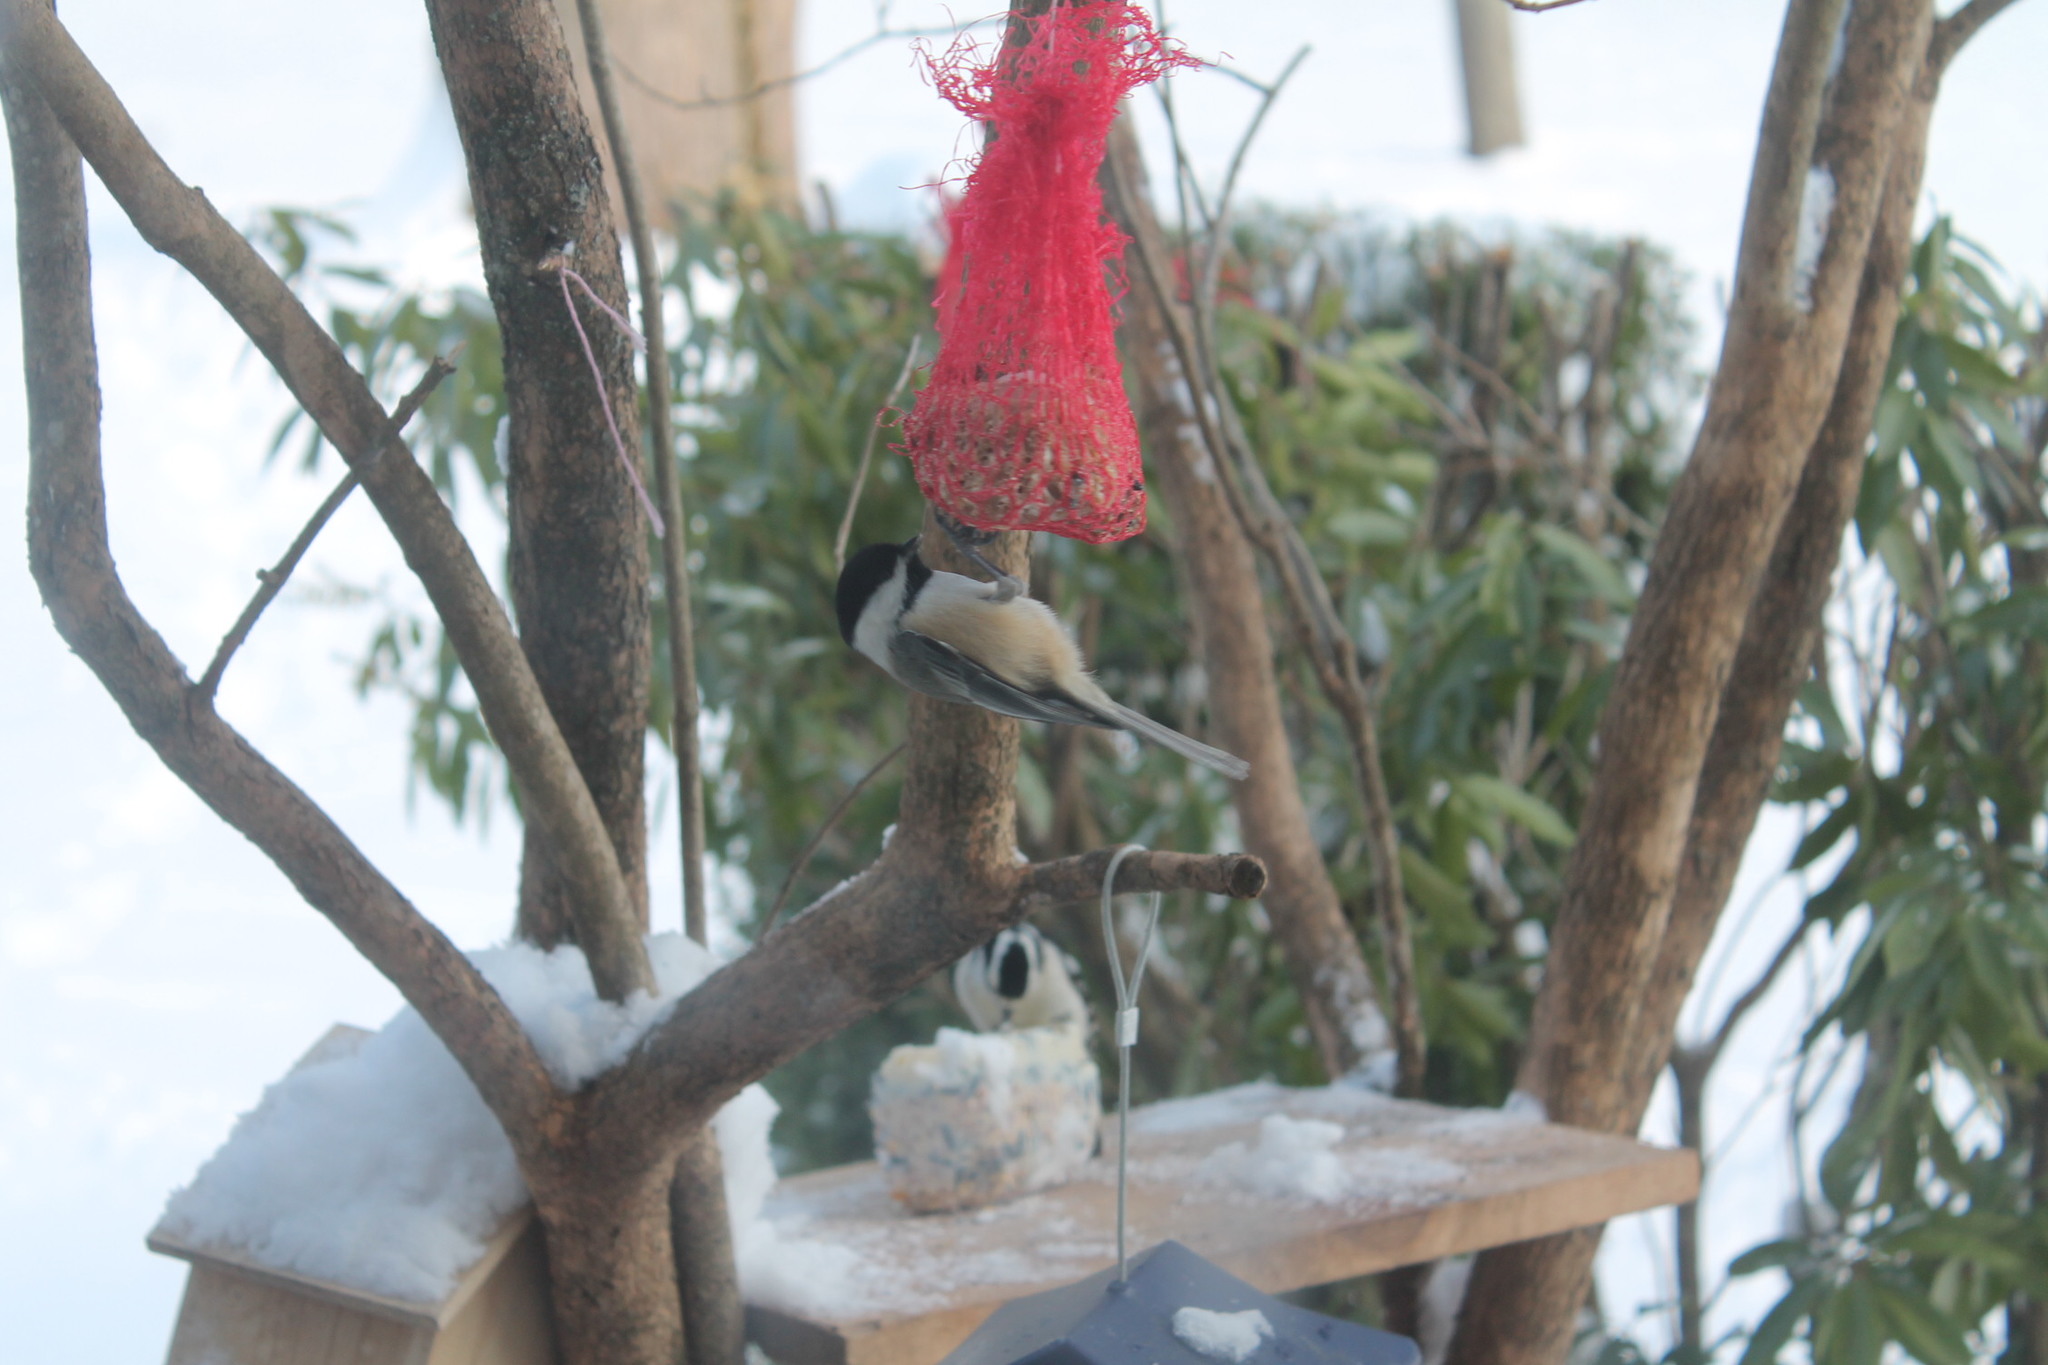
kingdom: Animalia
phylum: Chordata
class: Aves
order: Passeriformes
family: Paridae
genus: Poecile
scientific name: Poecile atricapillus
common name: Black-capped chickadee
